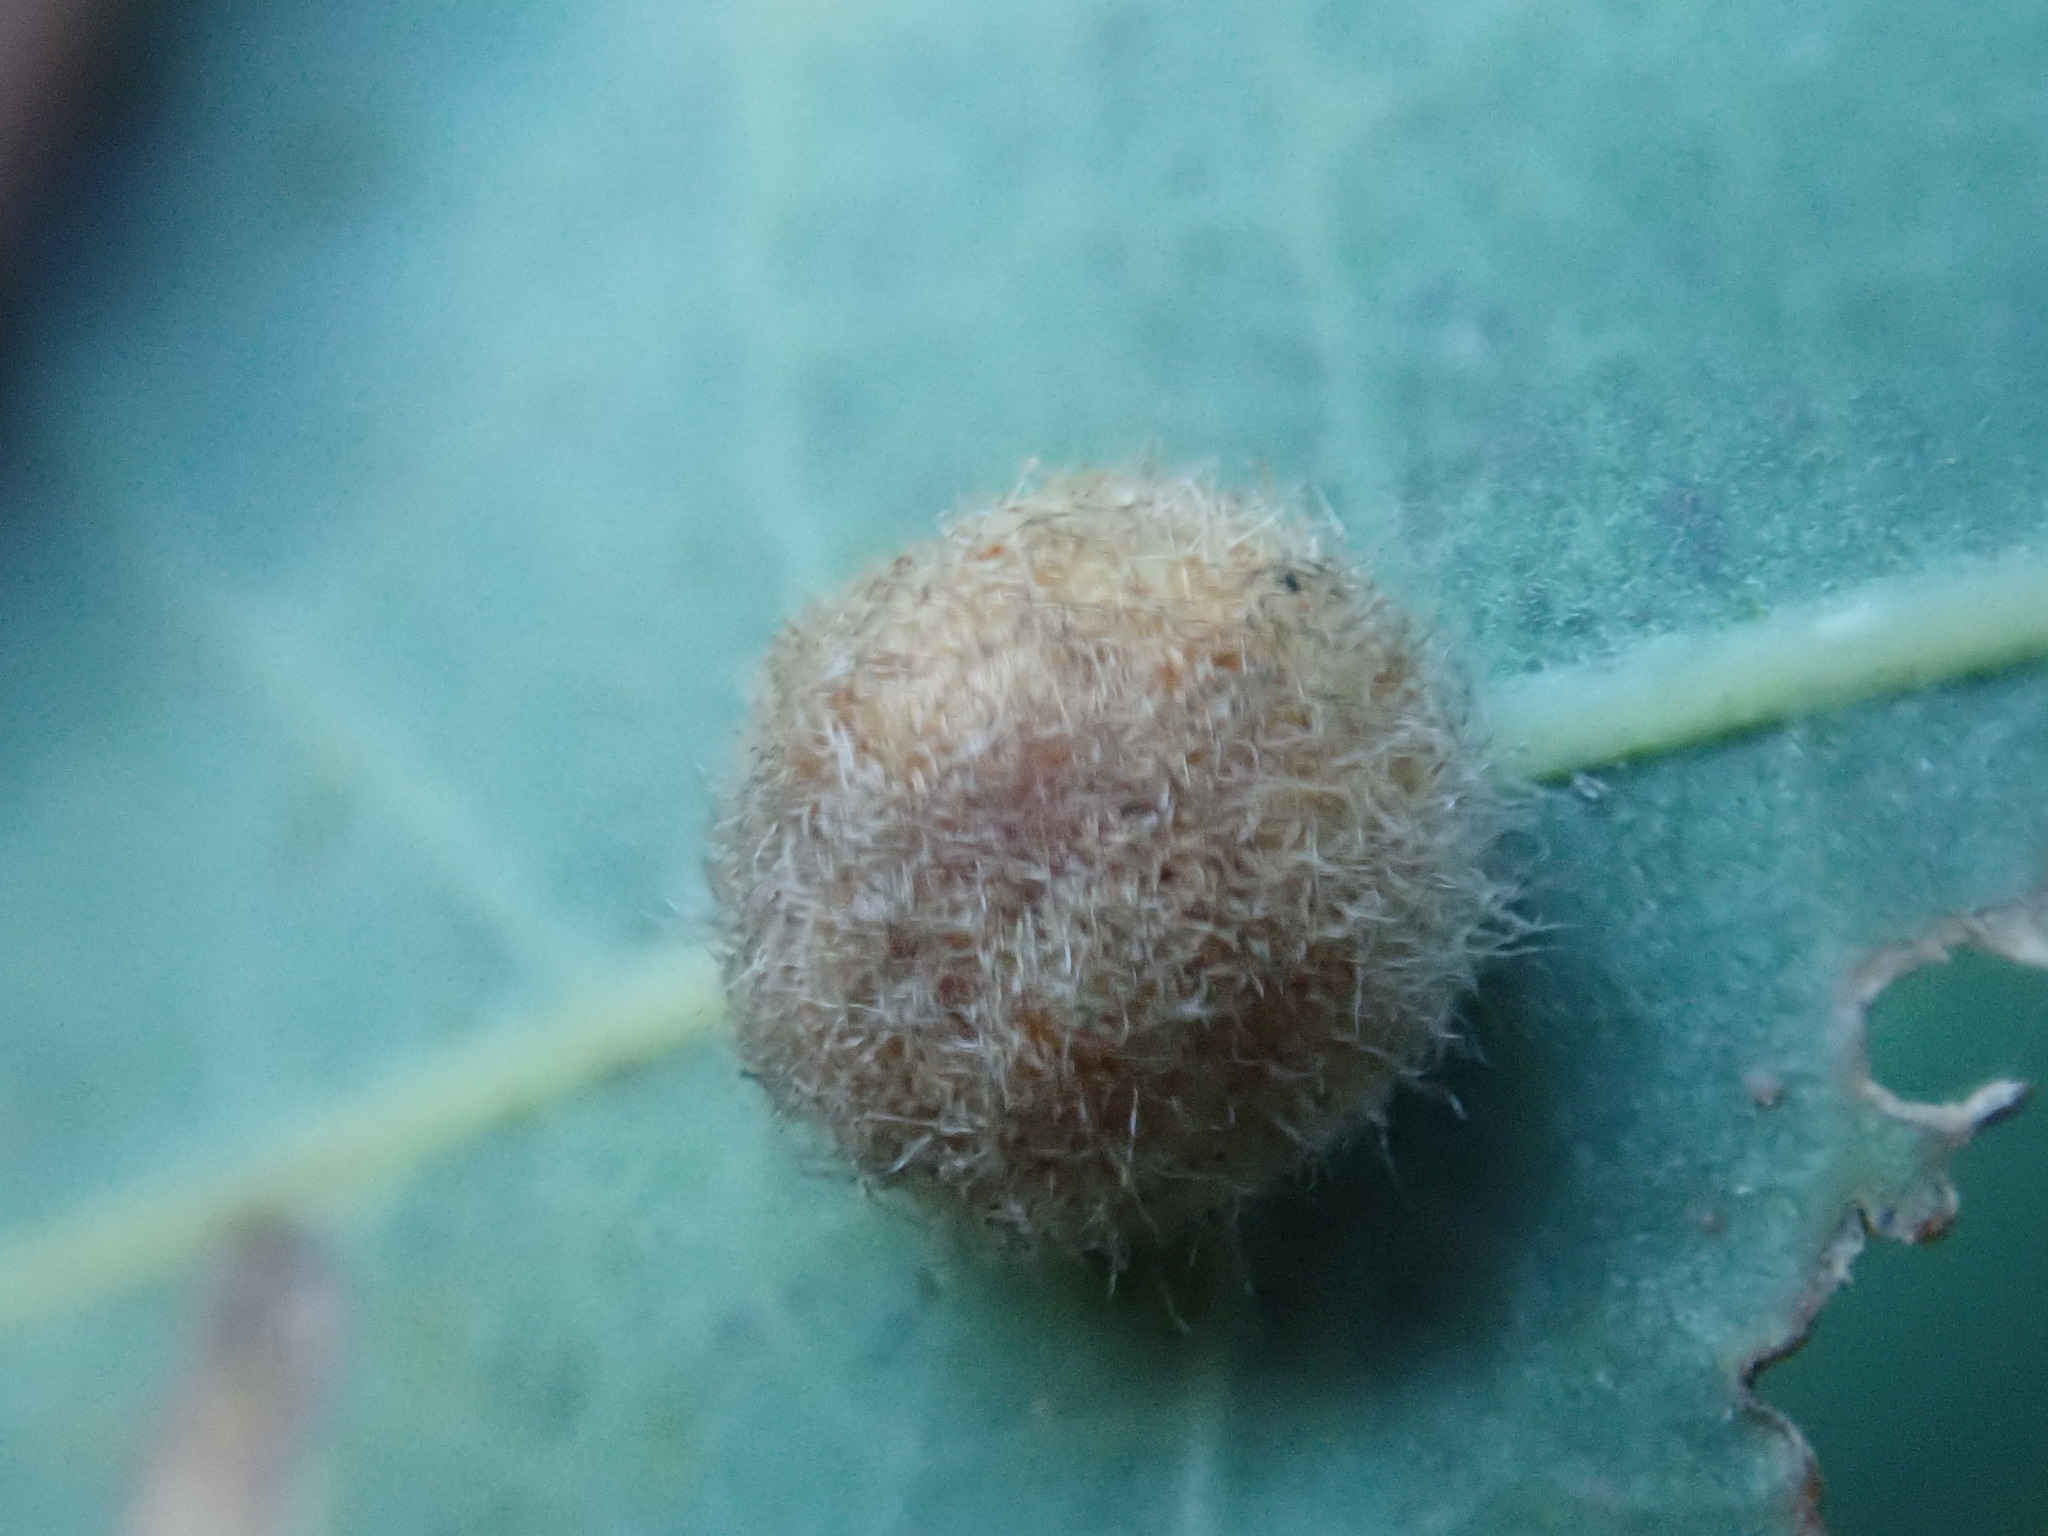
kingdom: Animalia
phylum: Arthropoda
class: Insecta
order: Hymenoptera
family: Cynipidae
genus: Philonix
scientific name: Philonix fulvicollis
